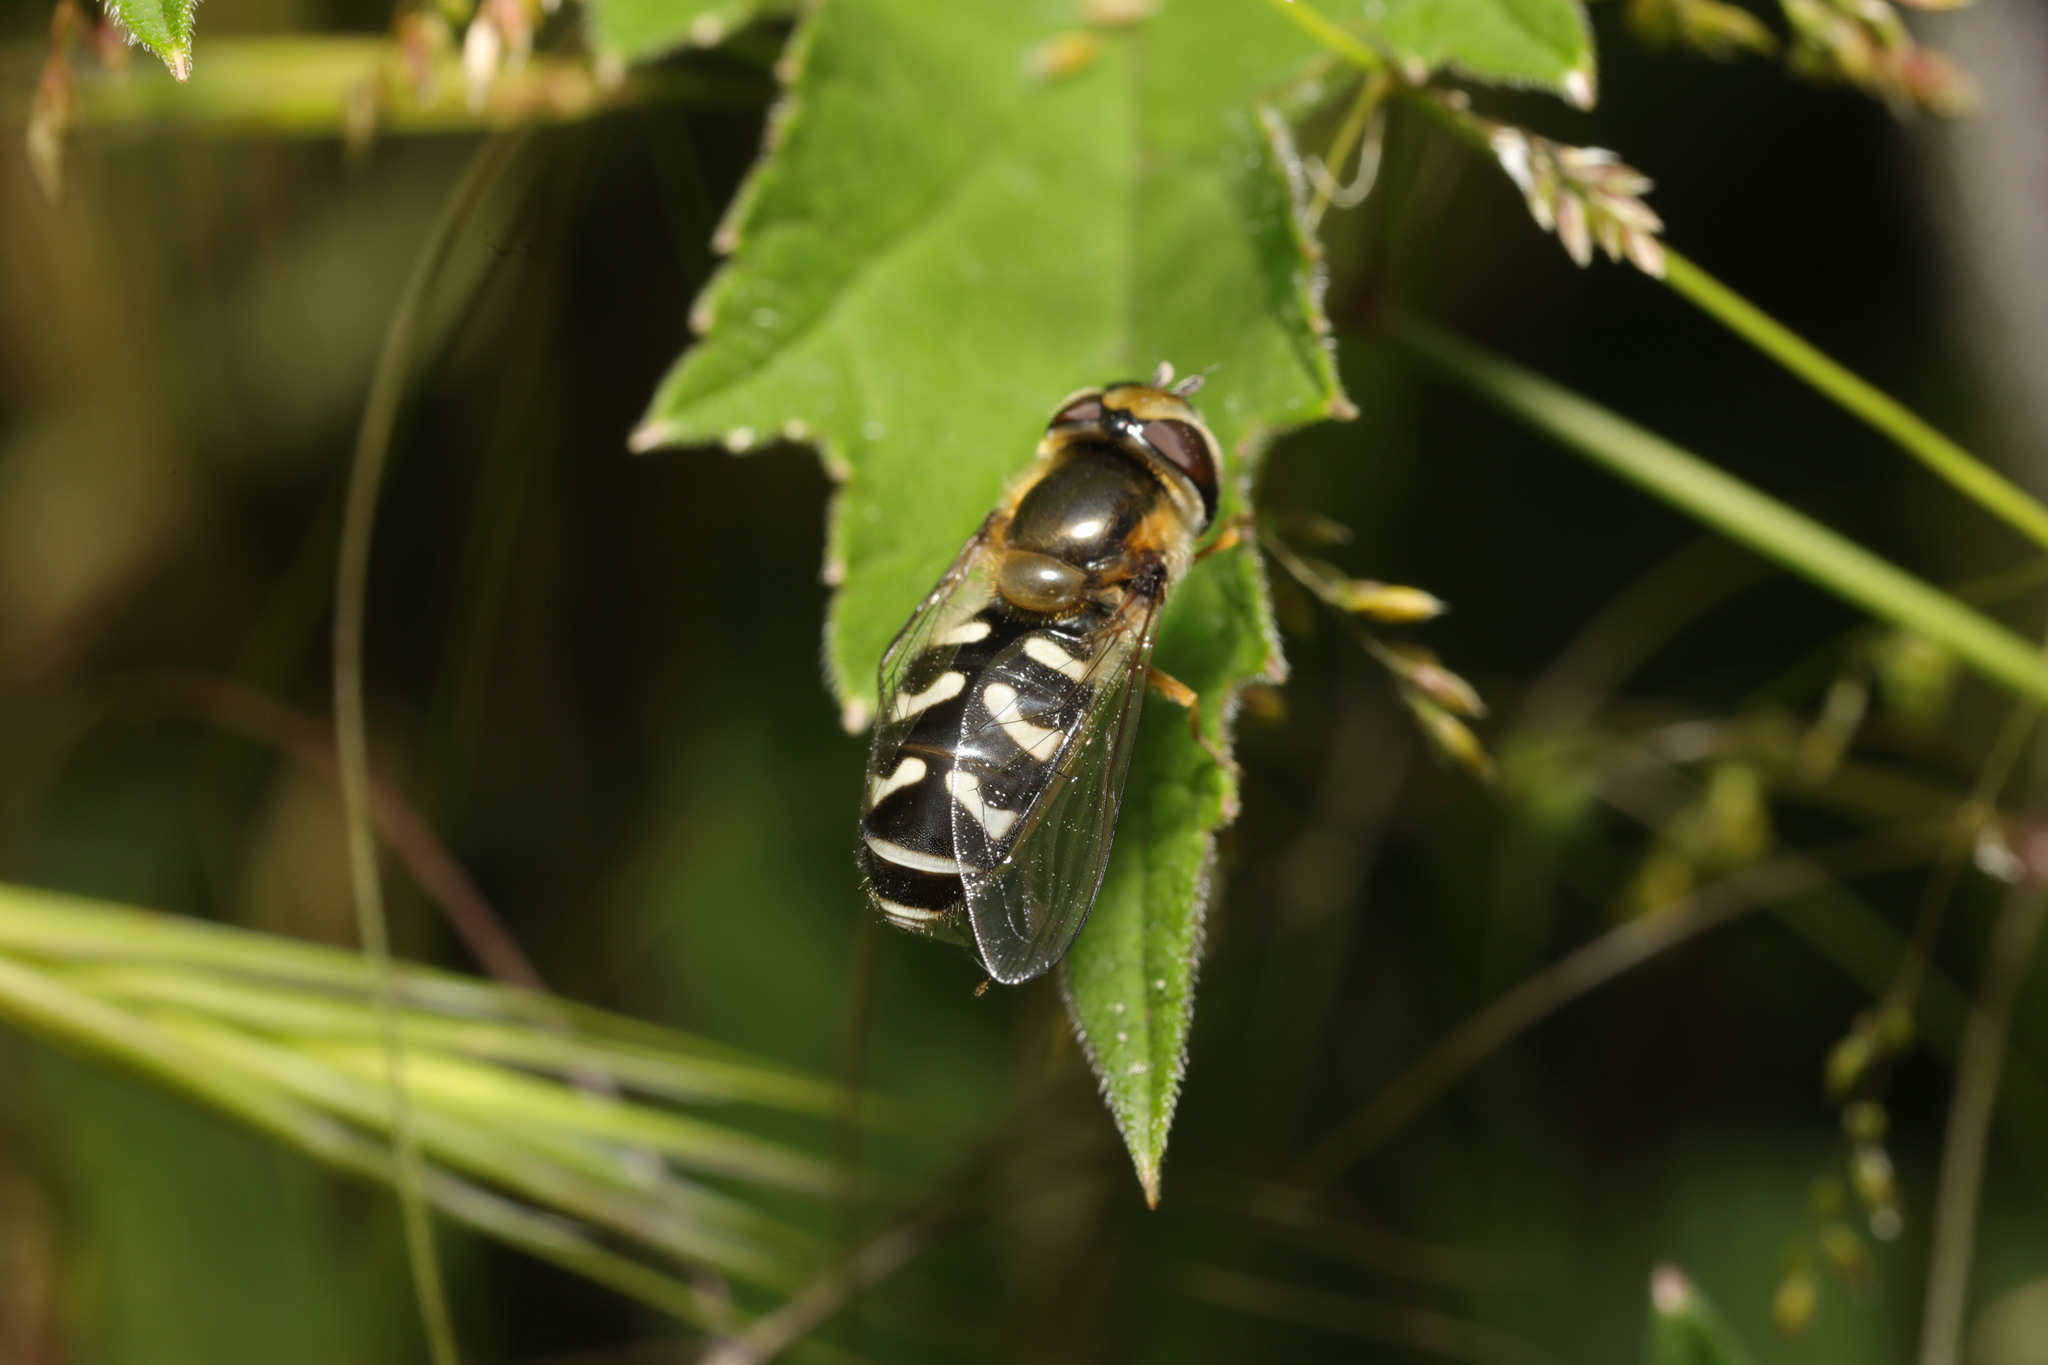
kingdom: Animalia
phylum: Arthropoda
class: Insecta
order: Diptera
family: Syrphidae
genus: Scaeva
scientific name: Scaeva pyrastri
